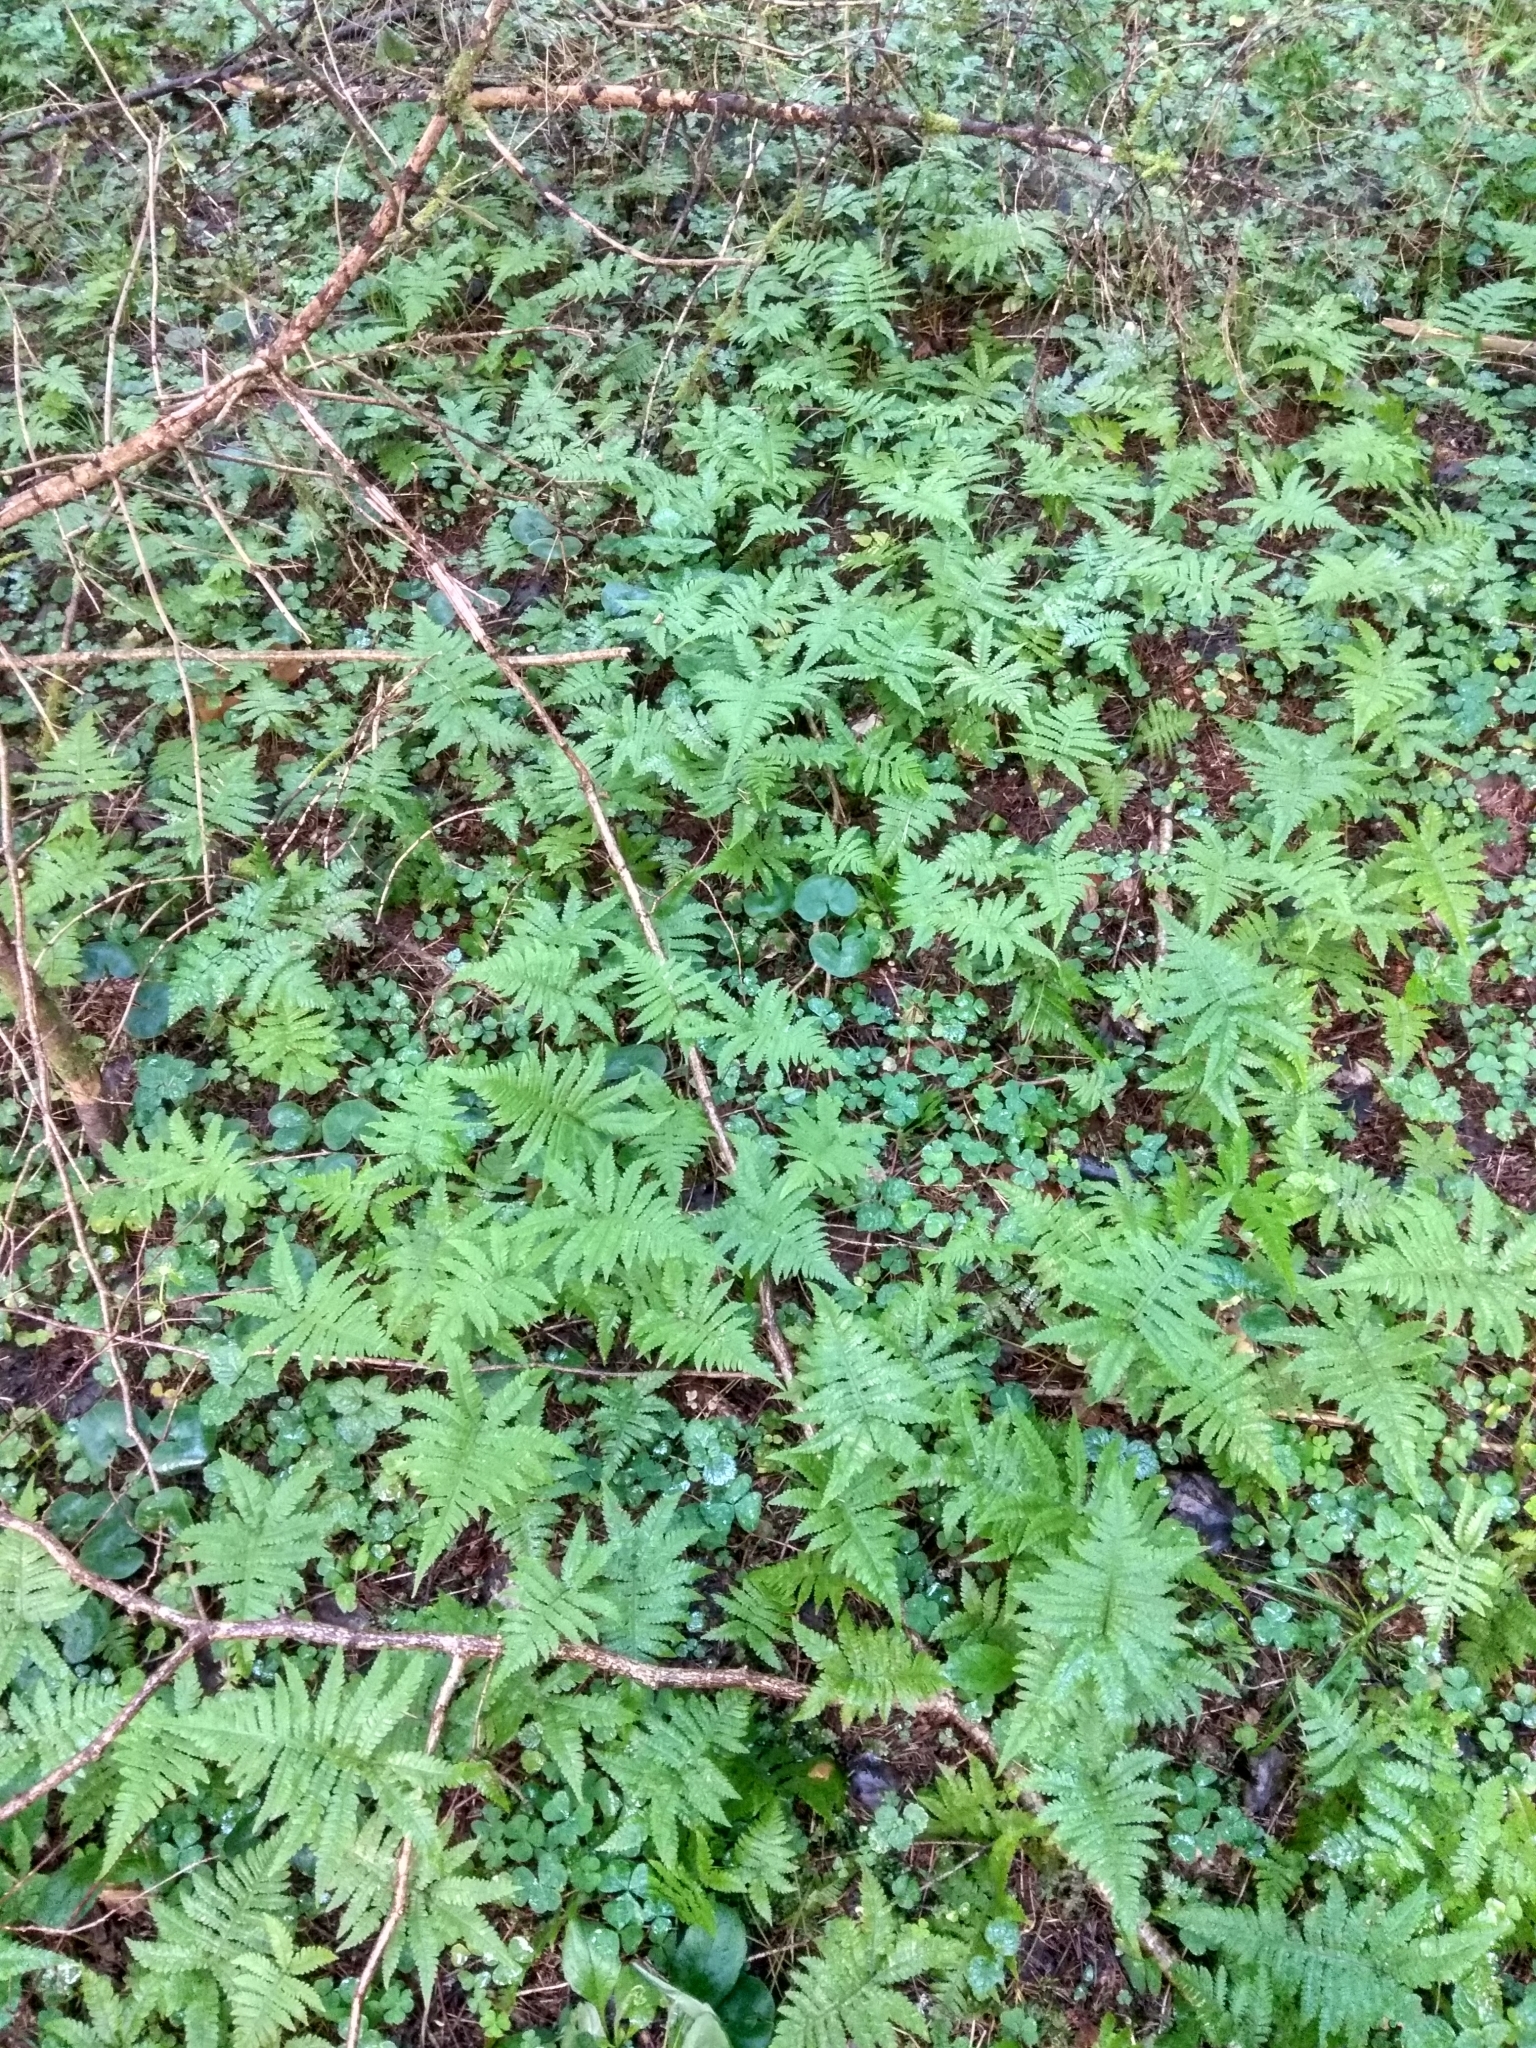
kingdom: Plantae
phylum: Tracheophyta
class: Polypodiopsida
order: Polypodiales
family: Thelypteridaceae
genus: Phegopteris
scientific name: Phegopteris connectilis
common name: Beech fern
